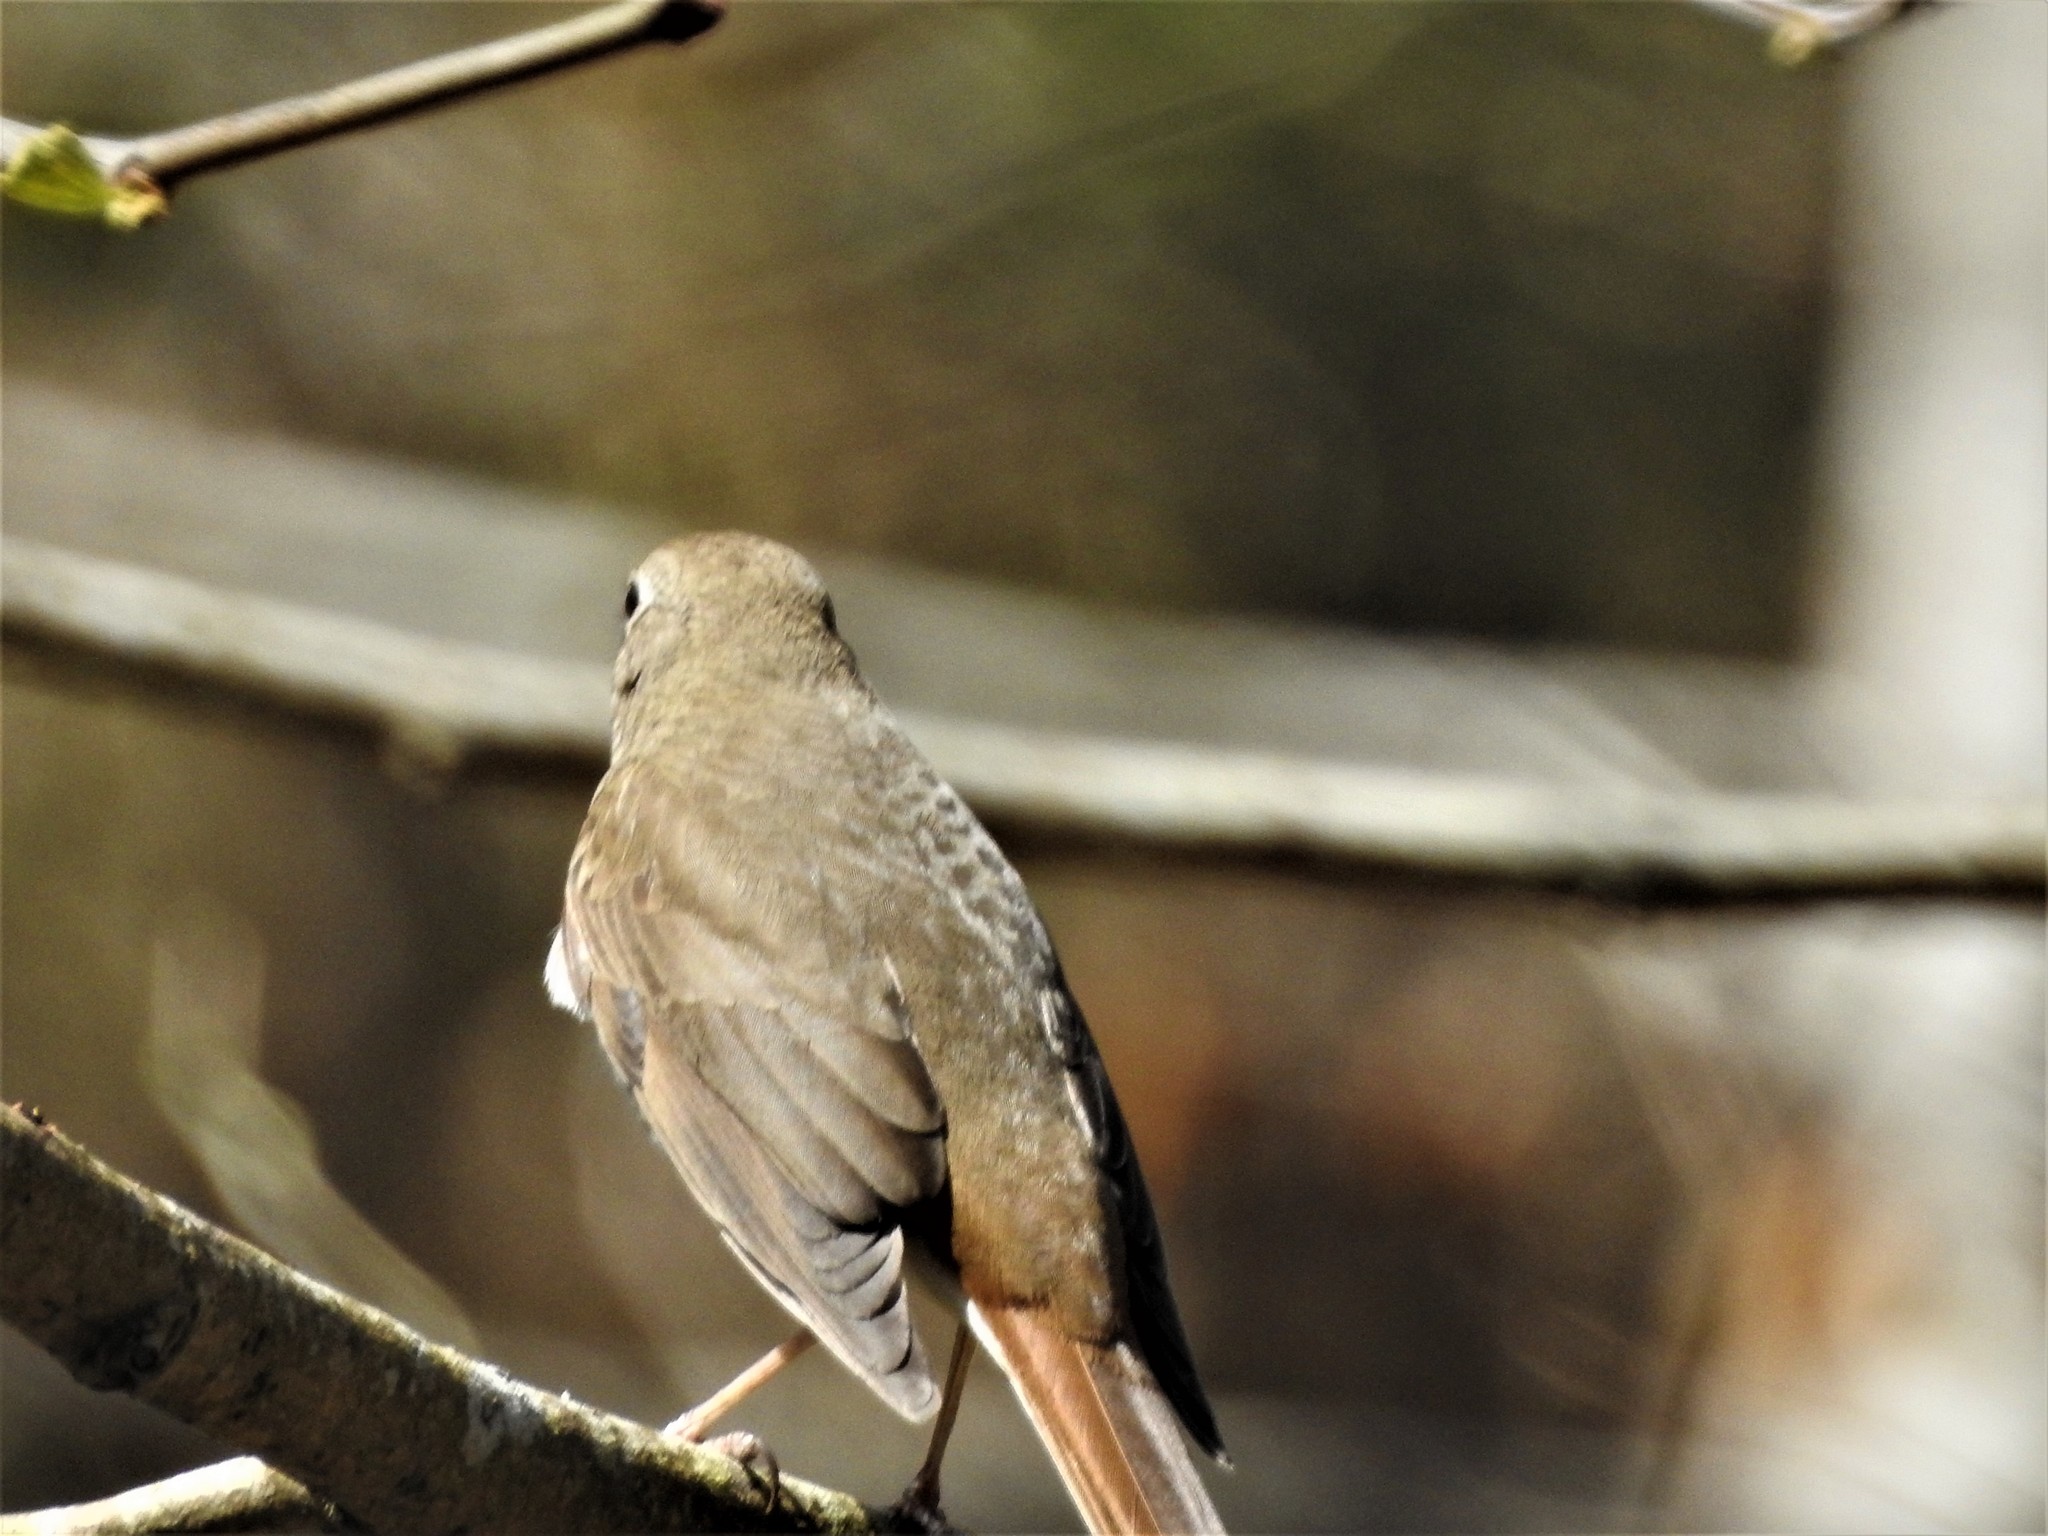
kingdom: Animalia
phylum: Chordata
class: Aves
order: Passeriformes
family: Turdidae
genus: Catharus
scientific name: Catharus guttatus
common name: Hermit thrush
